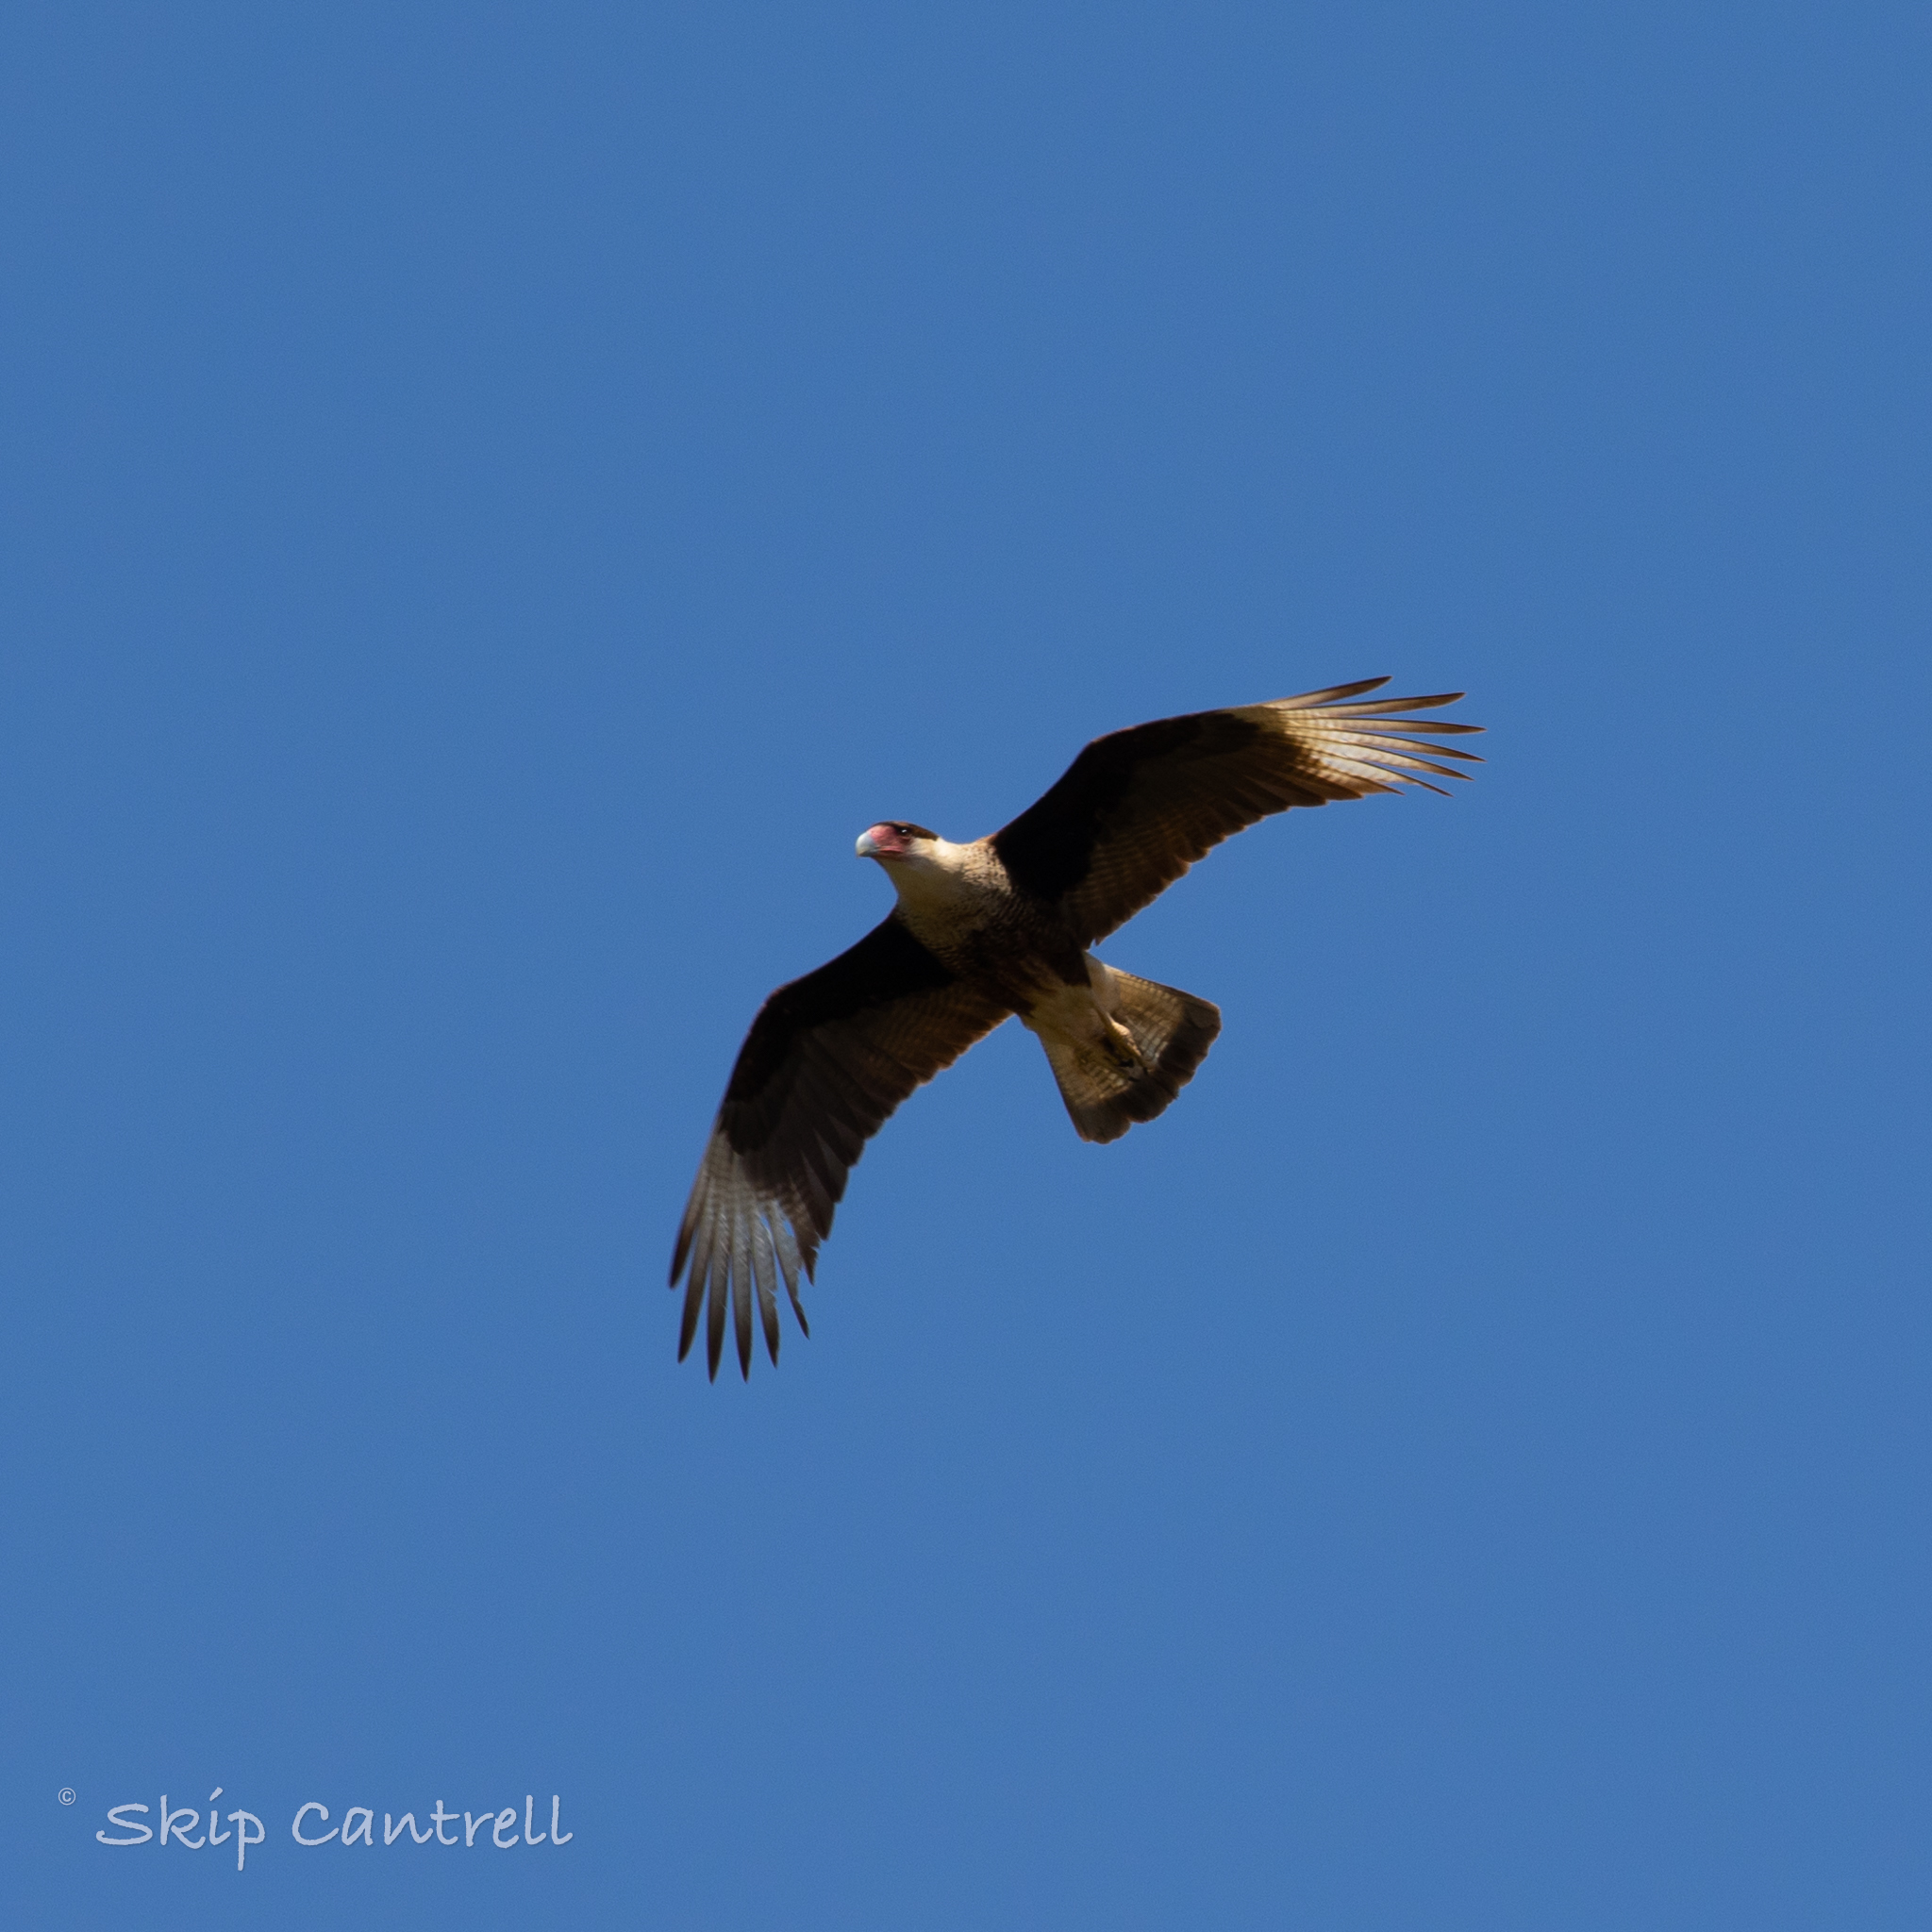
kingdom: Animalia
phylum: Chordata
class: Aves
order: Falconiformes
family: Falconidae
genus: Caracara
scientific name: Caracara plancus
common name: Southern caracara
